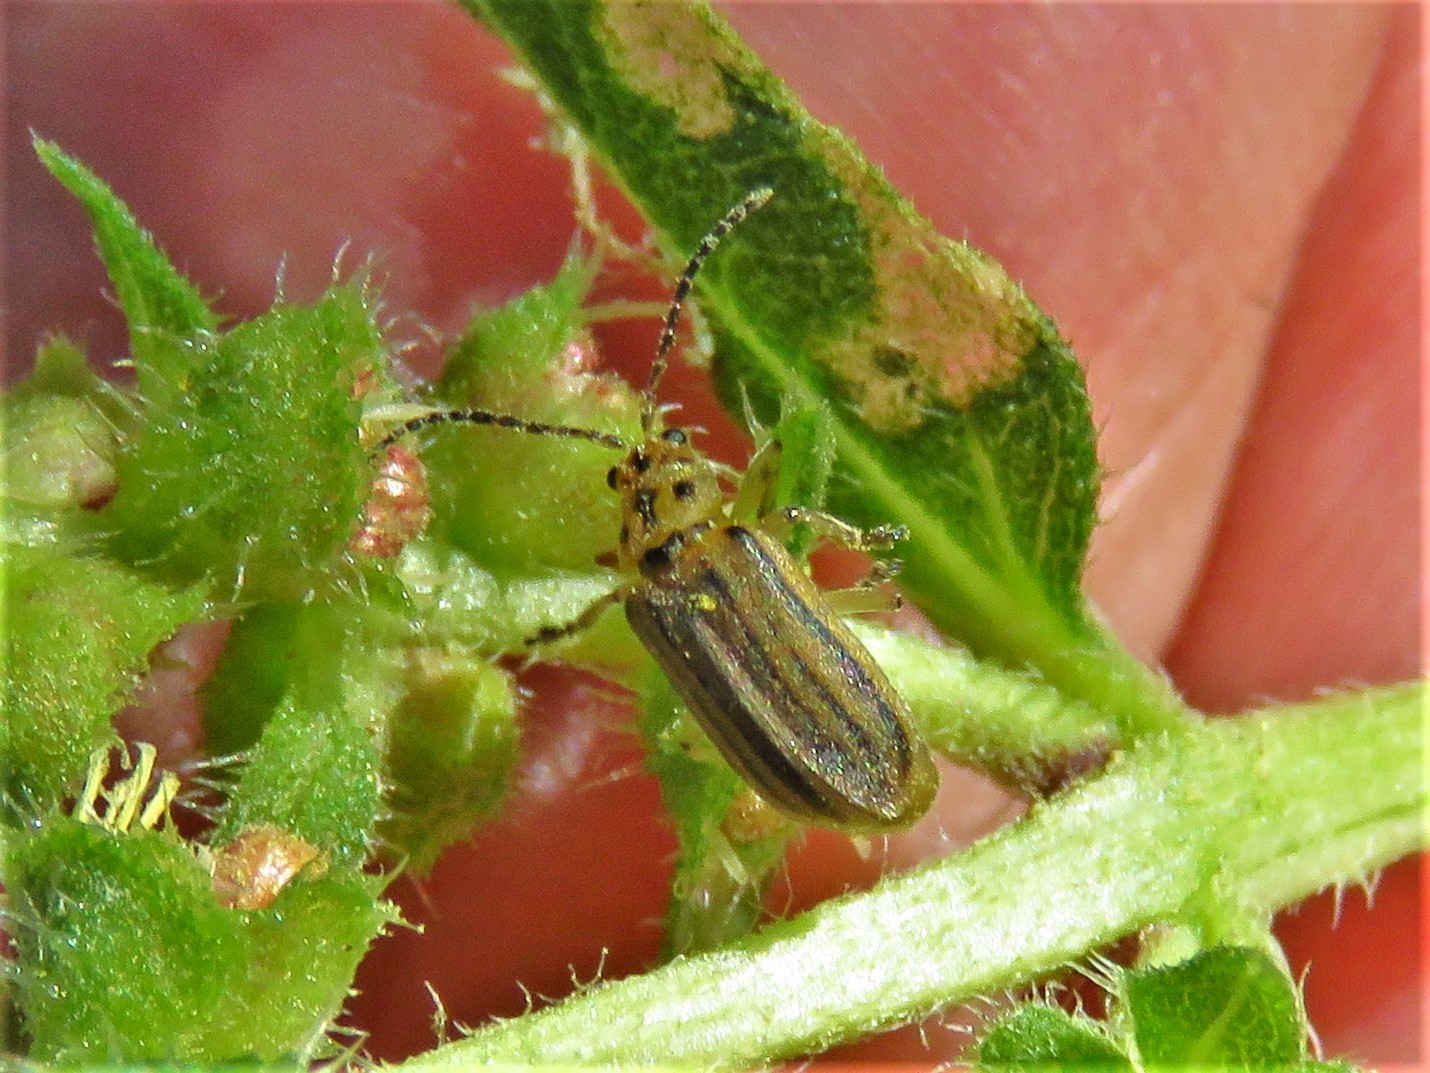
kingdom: Animalia
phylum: Arthropoda
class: Insecta
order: Coleoptera
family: Chrysomelidae
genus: Xanthogaleruca
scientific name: Xanthogaleruca luteola
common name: Elm leaf beetle
